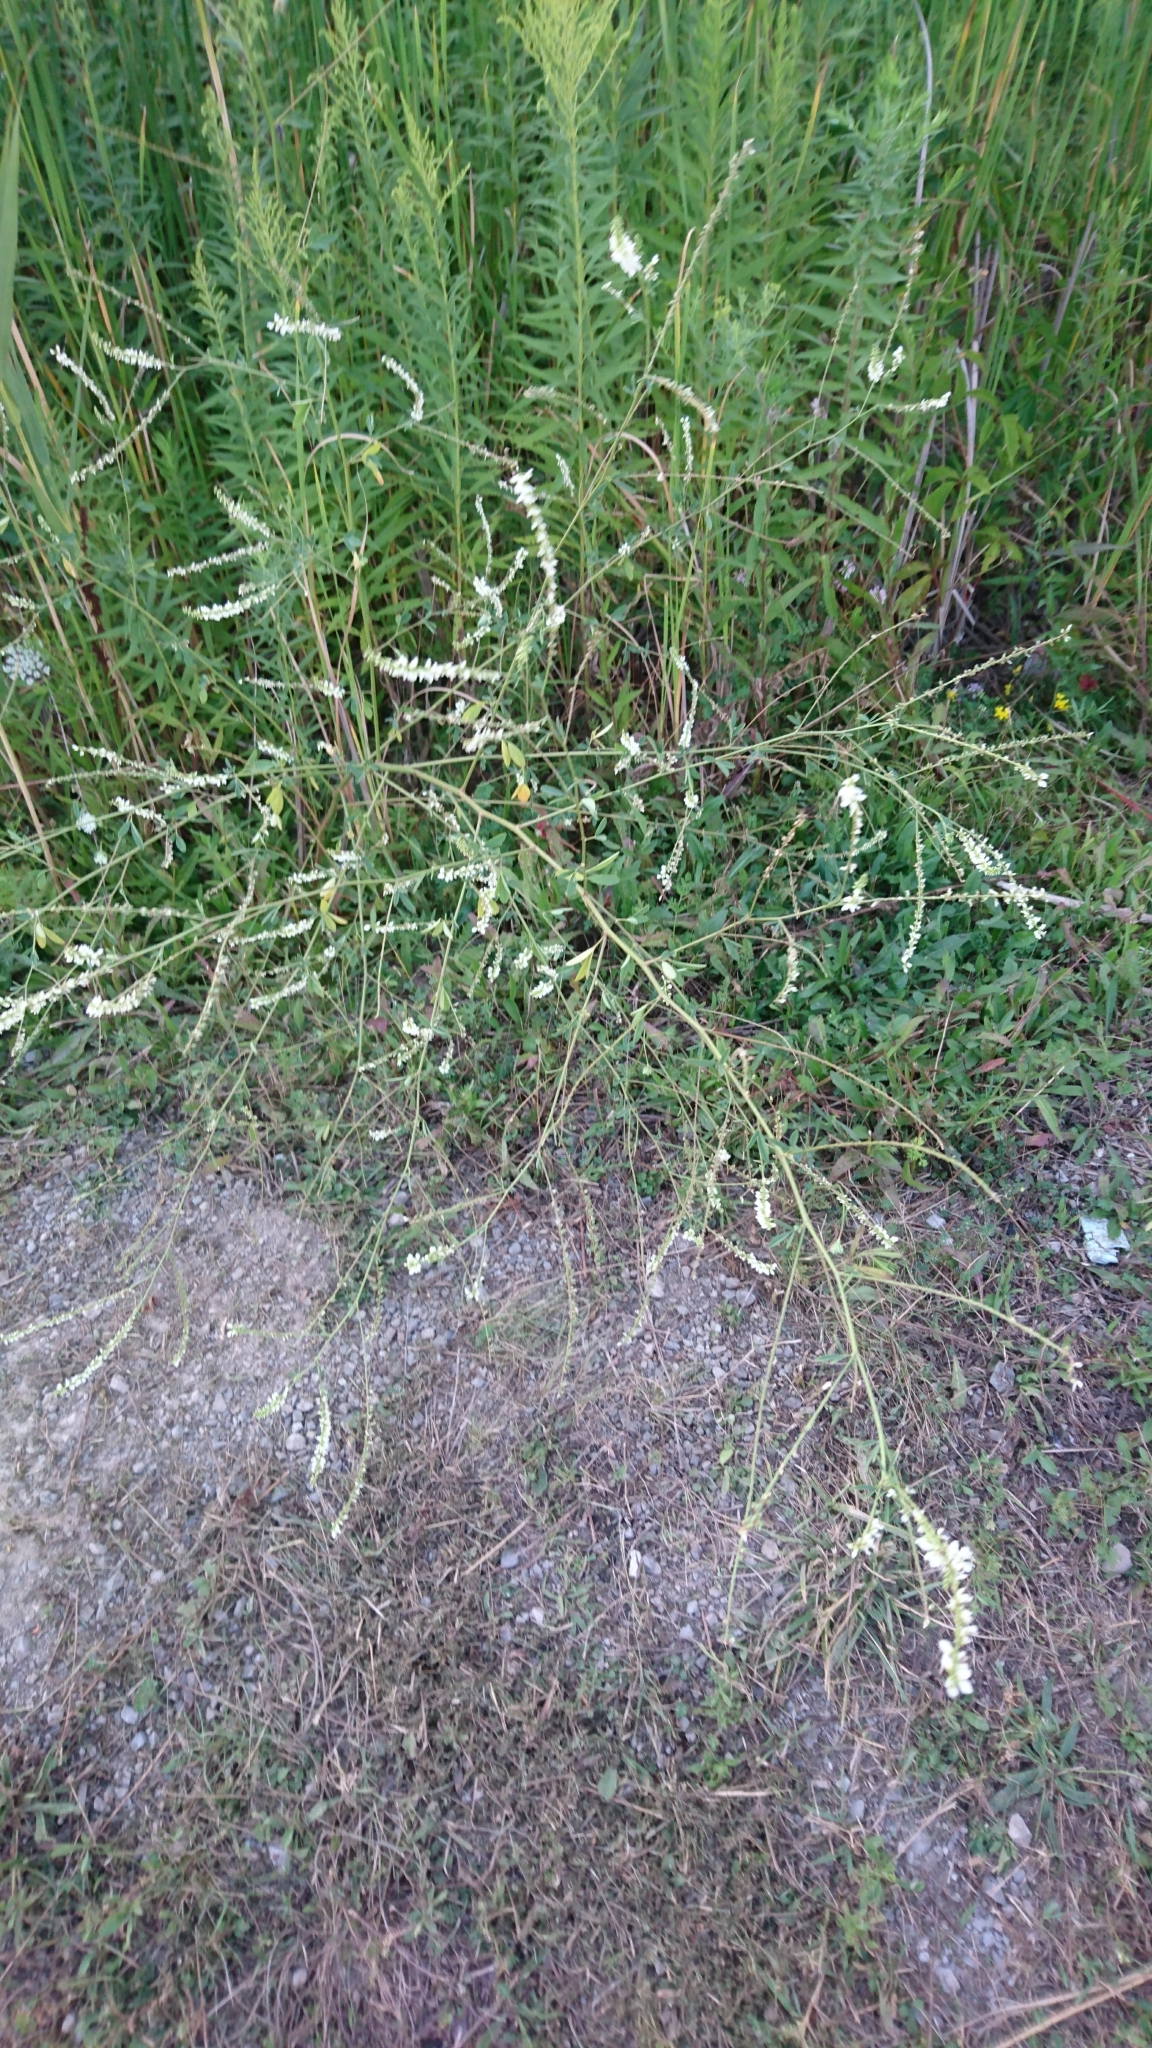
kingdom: Plantae
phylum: Tracheophyta
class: Magnoliopsida
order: Fabales
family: Fabaceae
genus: Melilotus
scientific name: Melilotus albus
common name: White melilot
